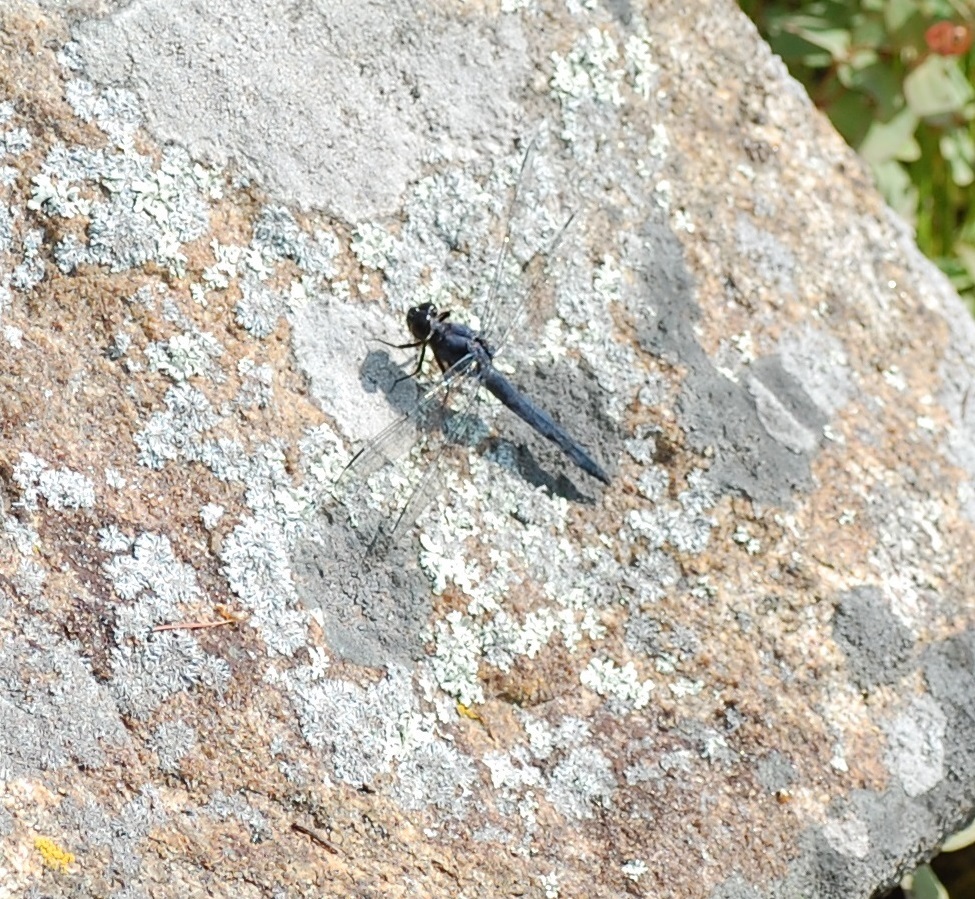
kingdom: Animalia
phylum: Arthropoda
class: Insecta
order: Odonata
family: Libellulidae
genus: Libellula
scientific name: Libellula incesta
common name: Slaty skimmer
